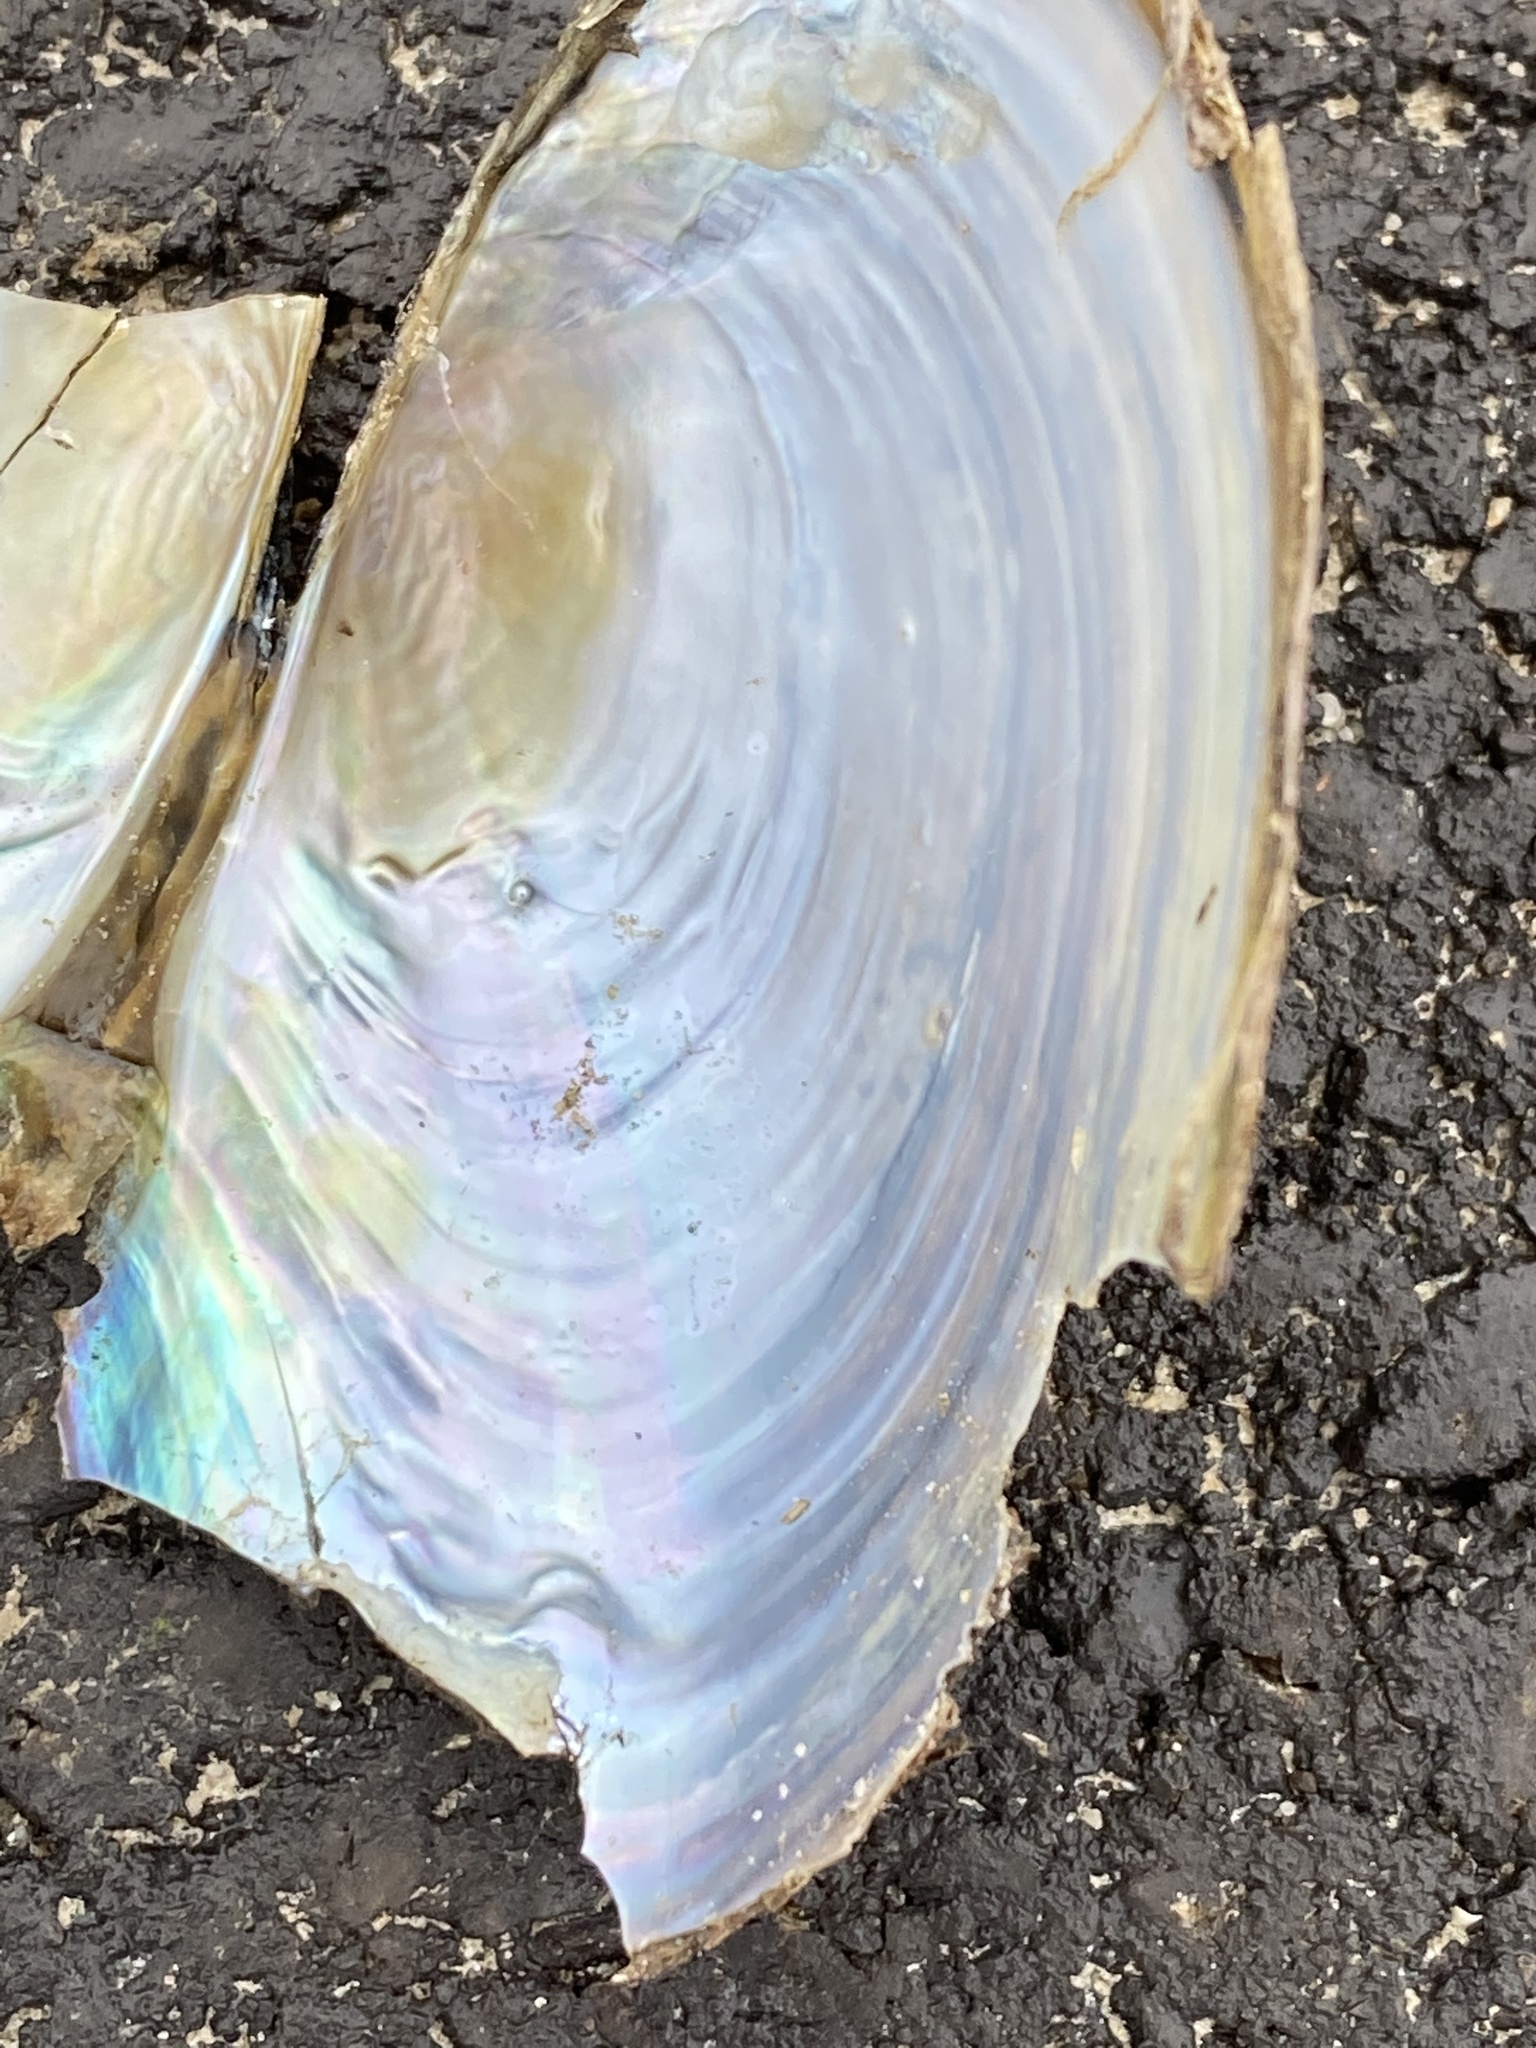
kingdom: Animalia
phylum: Mollusca
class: Bivalvia
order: Unionida
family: Unionidae
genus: Anodonta
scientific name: Anodonta cygnea
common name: Swan mussel
